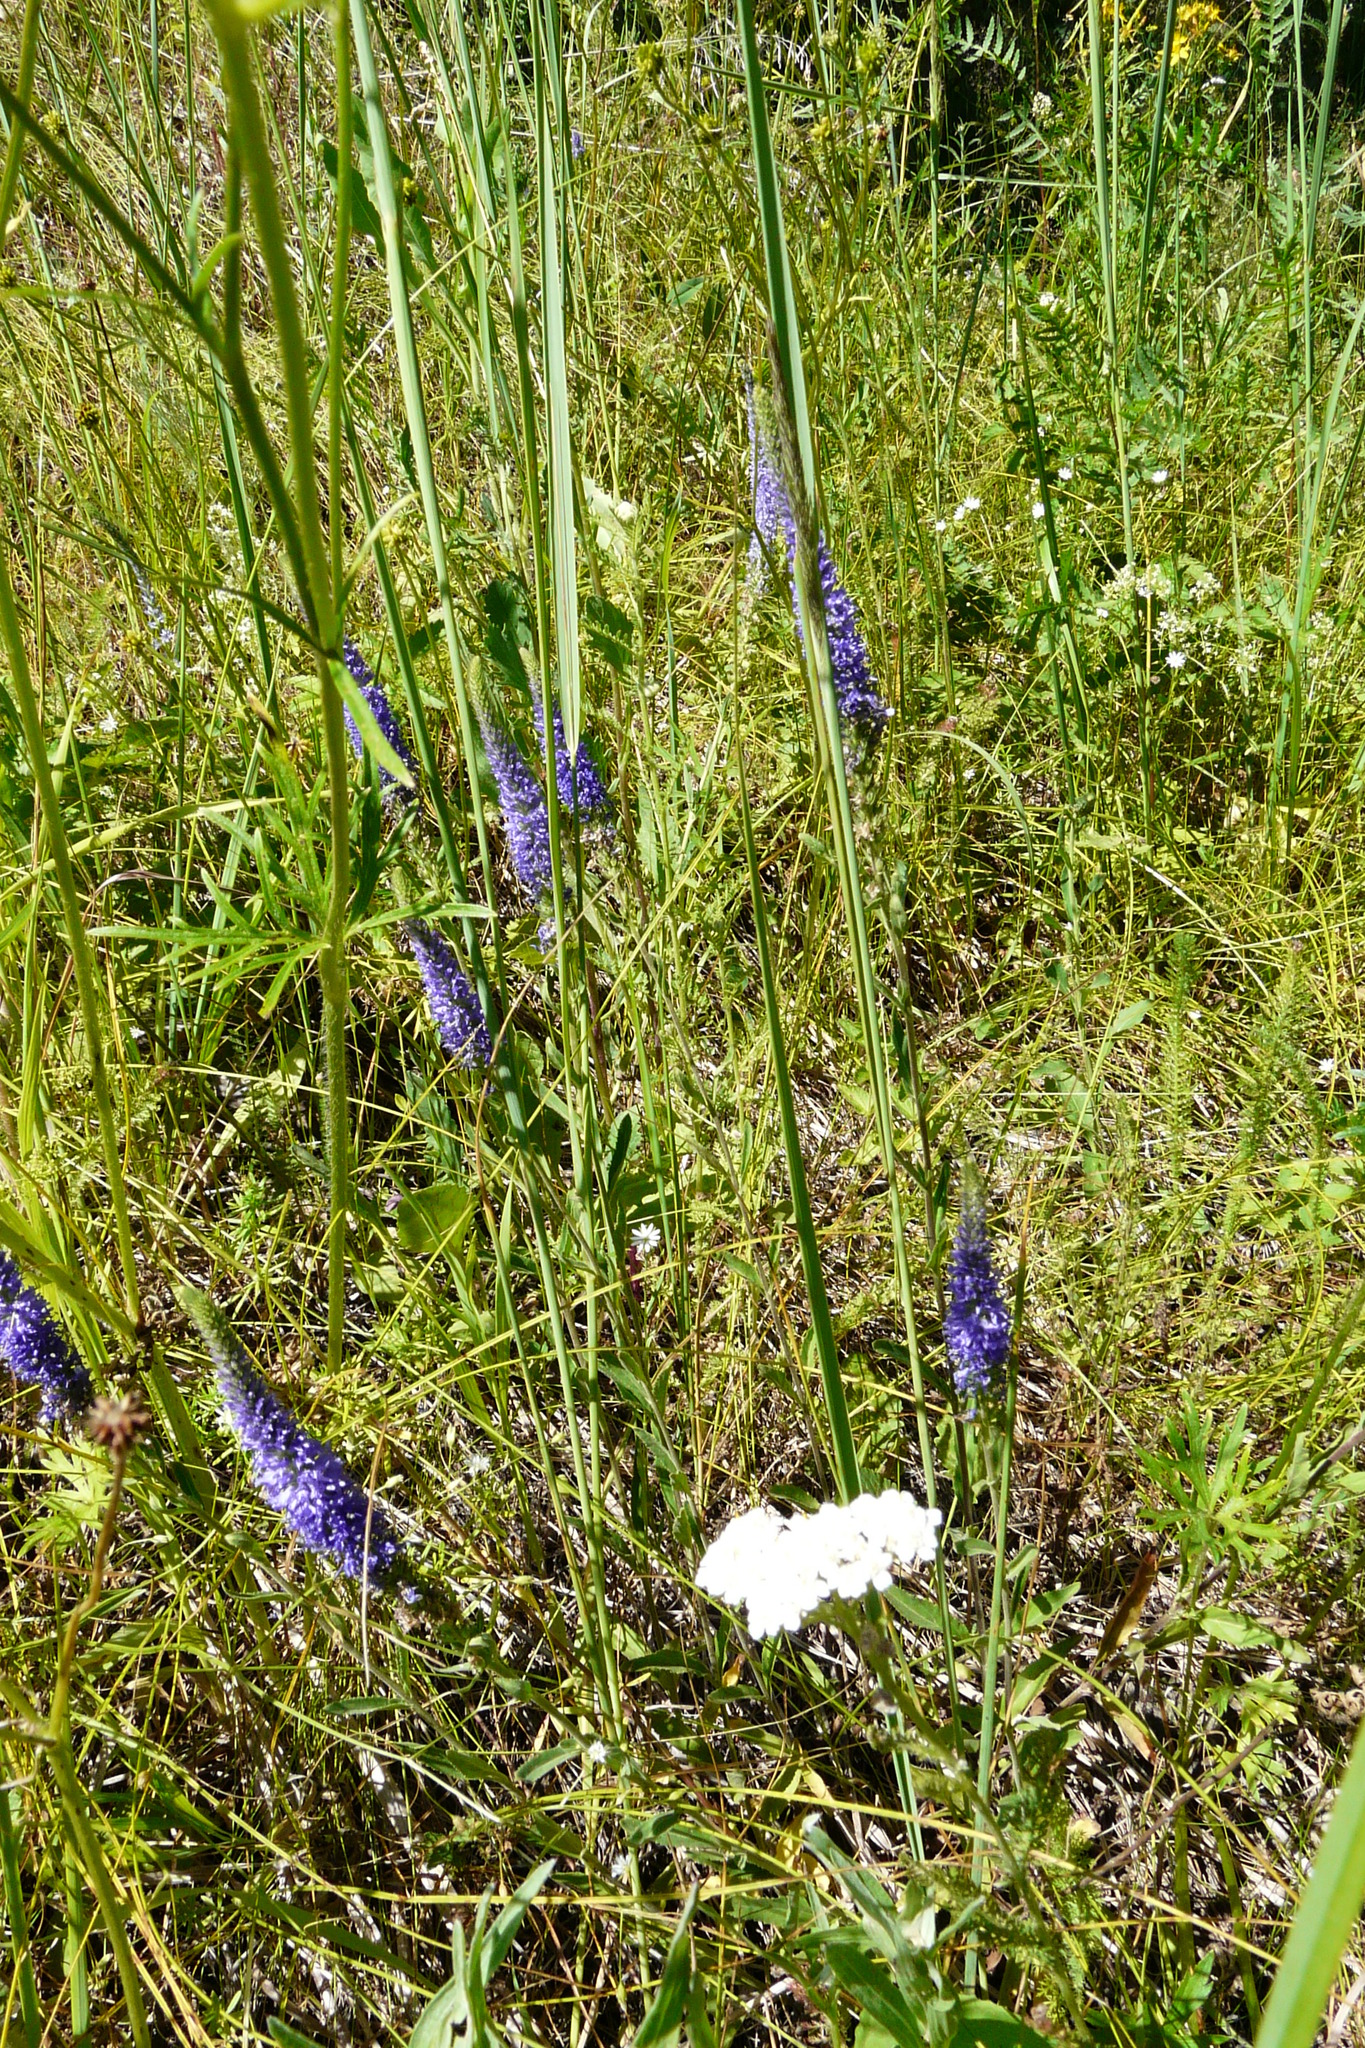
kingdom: Plantae
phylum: Tracheophyta
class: Magnoliopsida
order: Lamiales
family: Plantaginaceae
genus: Veronica
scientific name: Veronica spicata
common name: Spiked speedwell
